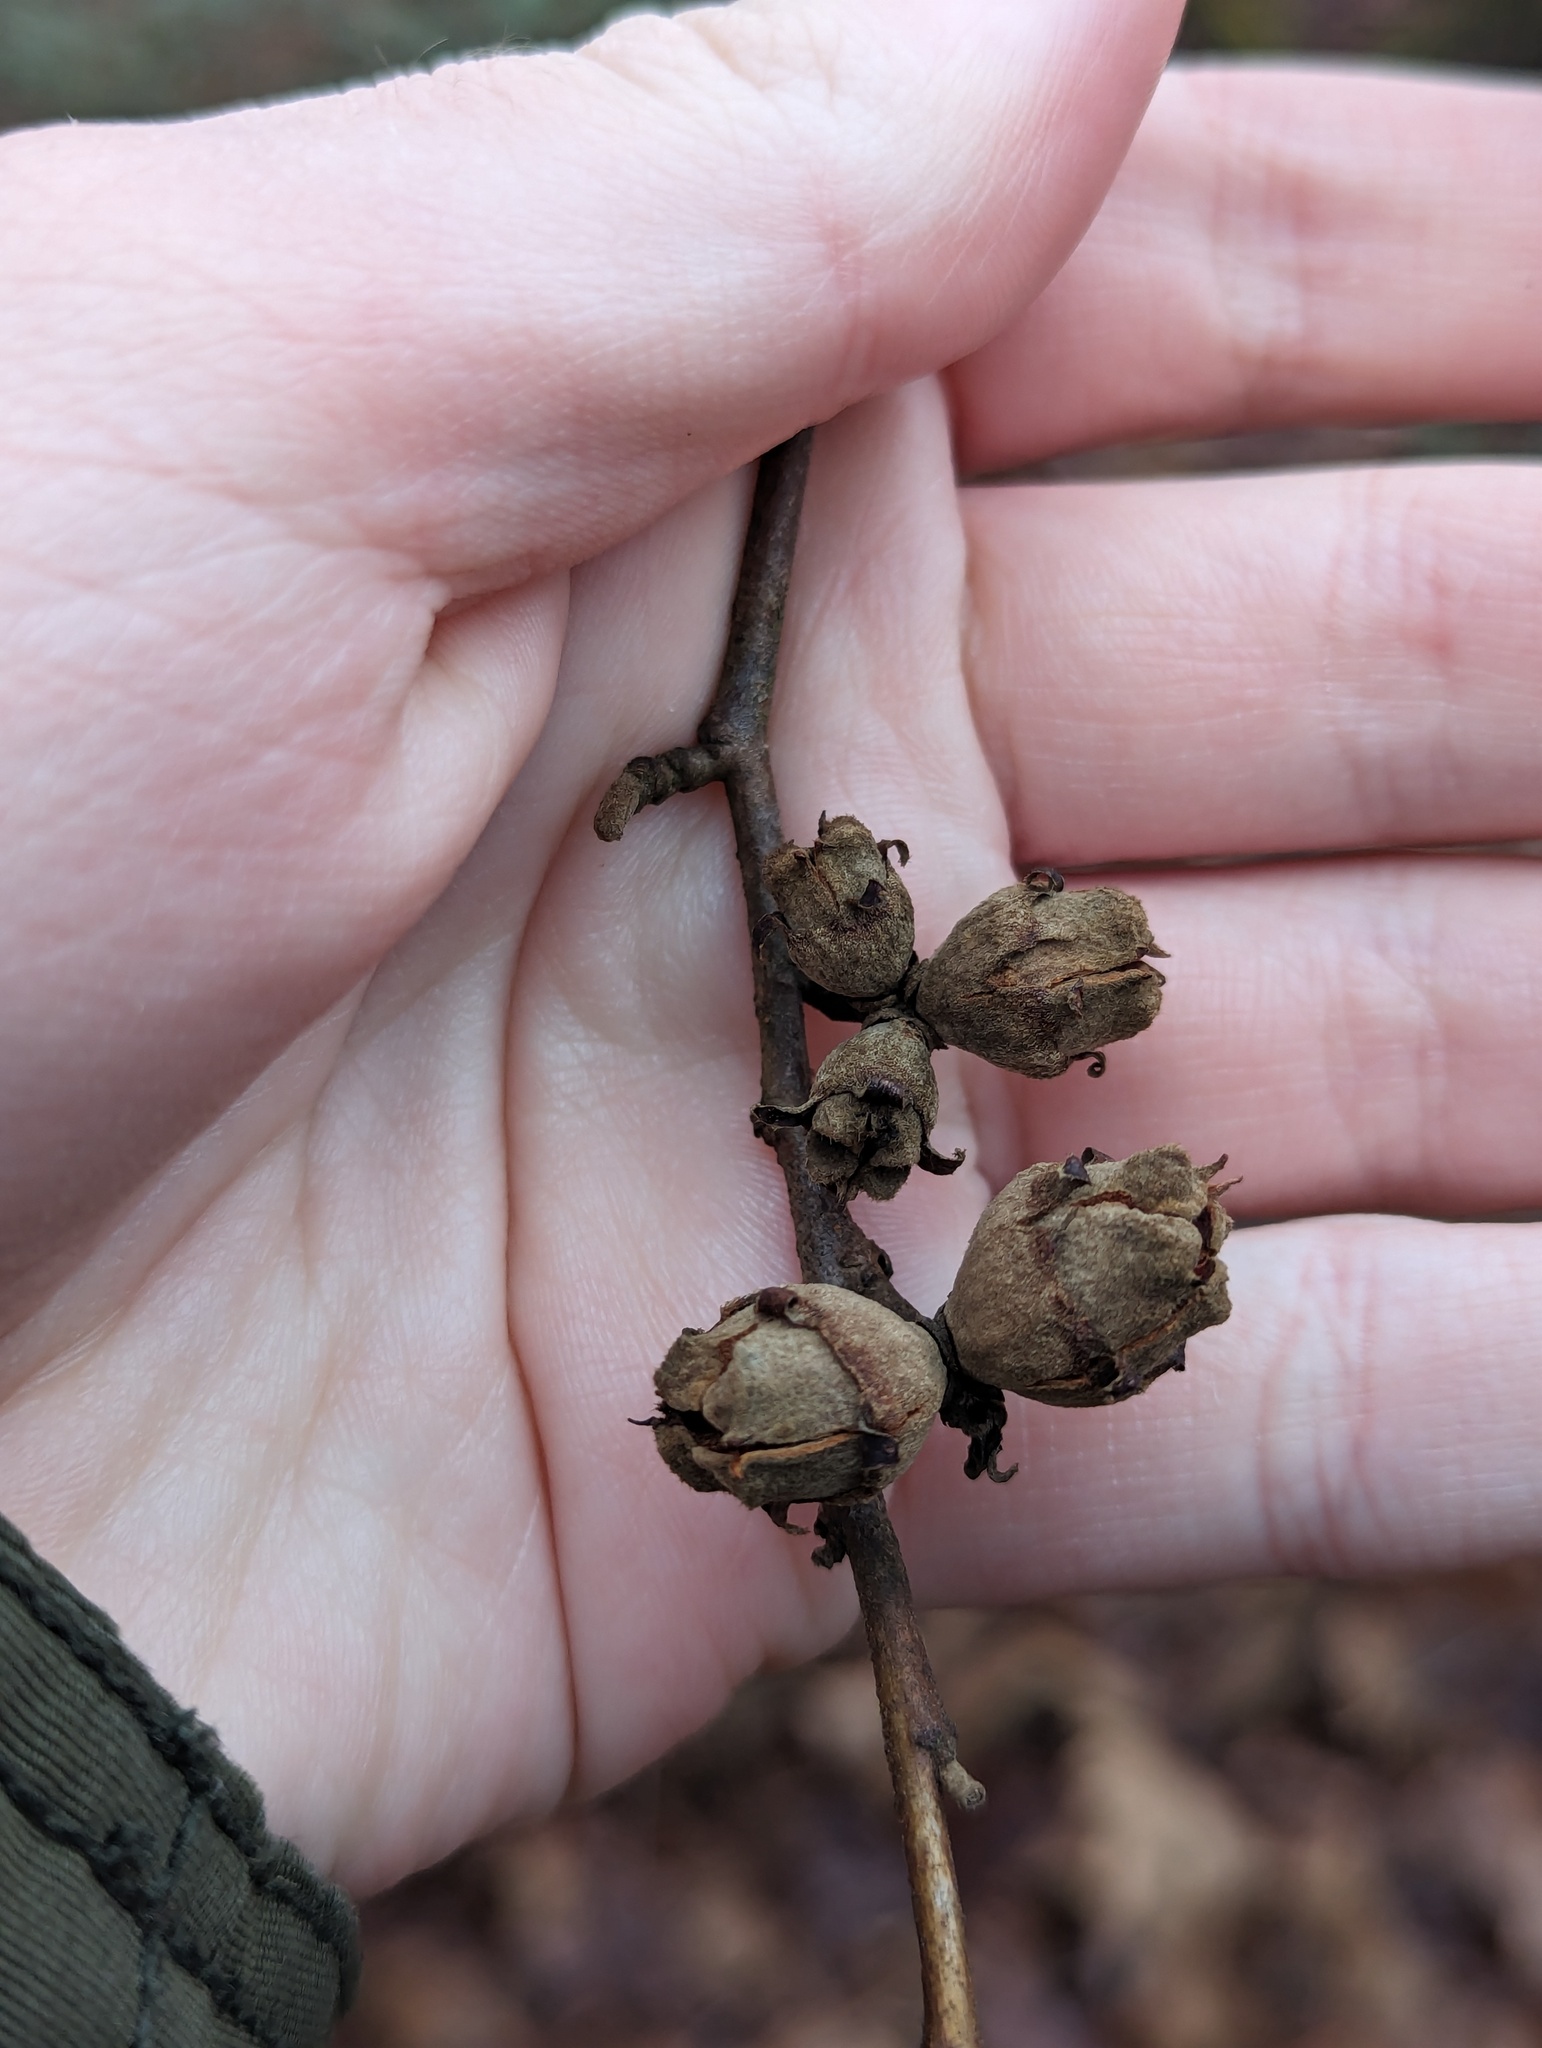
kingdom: Plantae
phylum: Tracheophyta
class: Magnoliopsida
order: Saxifragales
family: Hamamelidaceae
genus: Hamamelis
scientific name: Hamamelis virginiana
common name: Witch-hazel
